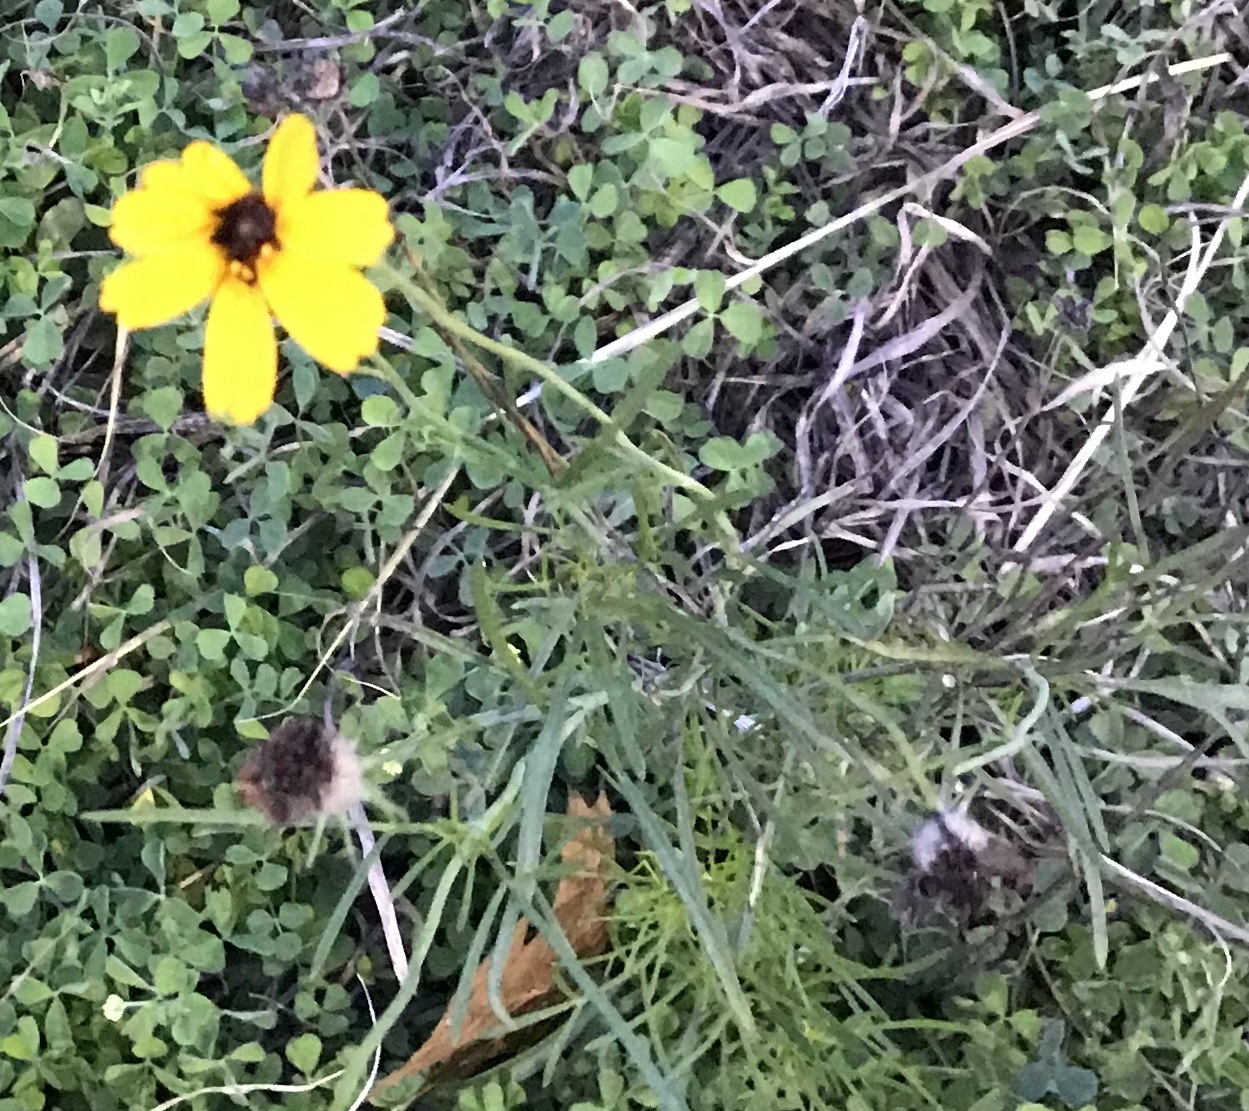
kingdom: Plantae
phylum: Tracheophyta
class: Magnoliopsida
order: Asterales
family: Asteraceae
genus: Thelesperma
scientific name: Thelesperma filifolium
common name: Stiff greenthread
